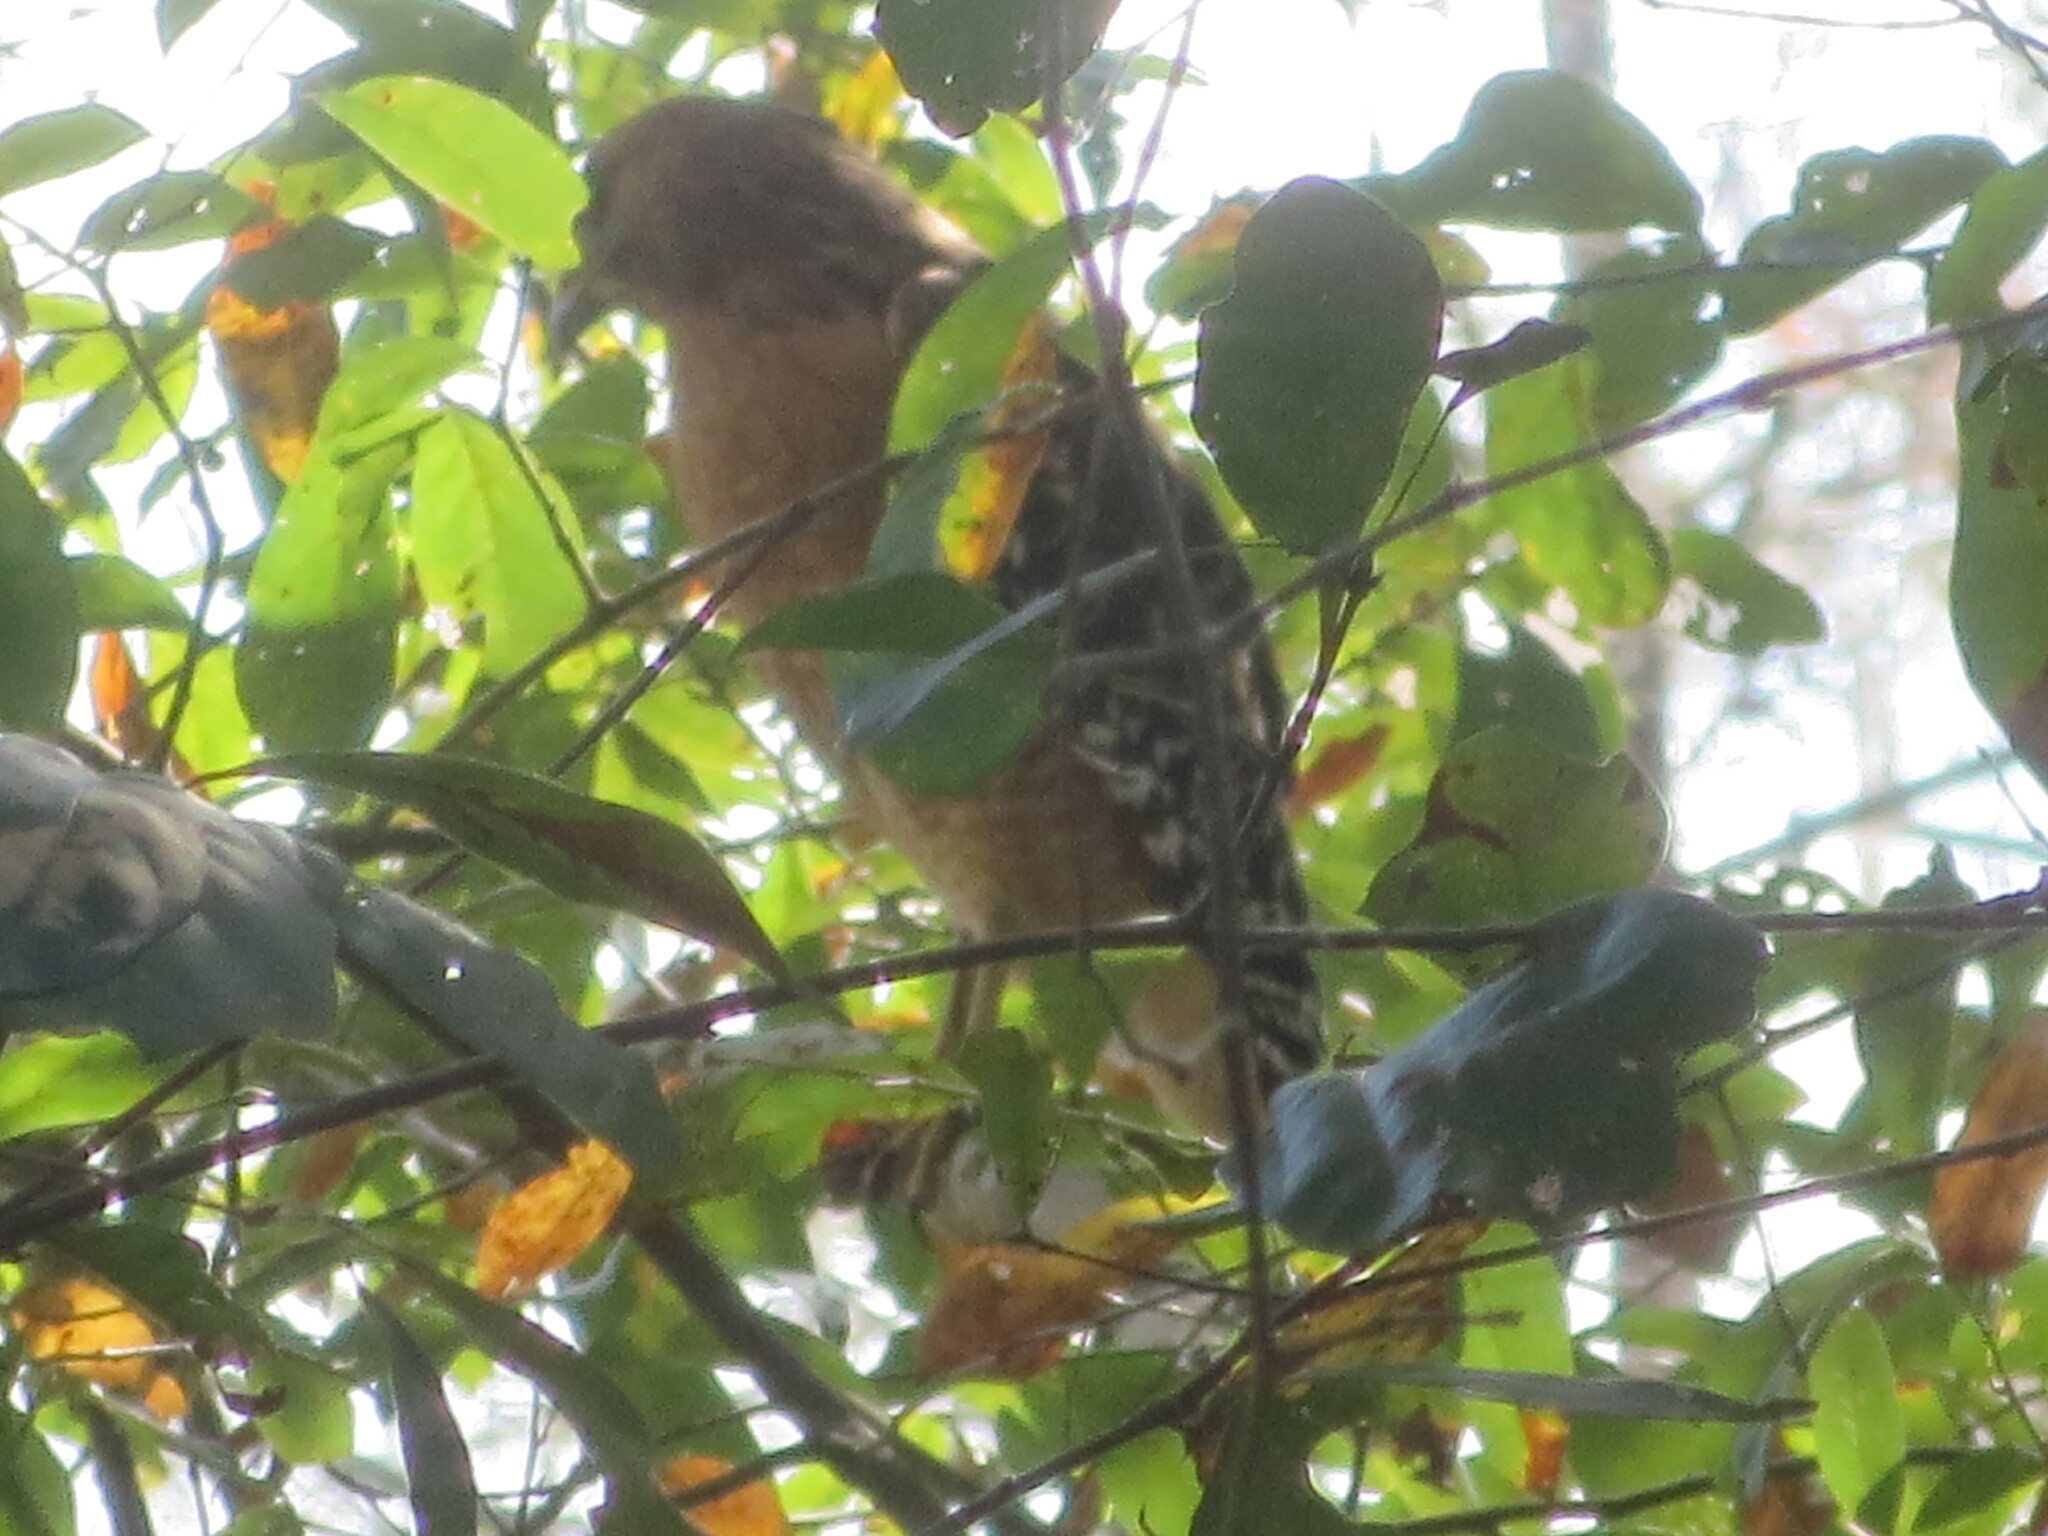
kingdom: Animalia
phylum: Chordata
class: Aves
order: Accipitriformes
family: Accipitridae
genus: Buteo
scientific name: Buteo lineatus
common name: Red-shouldered hawk
